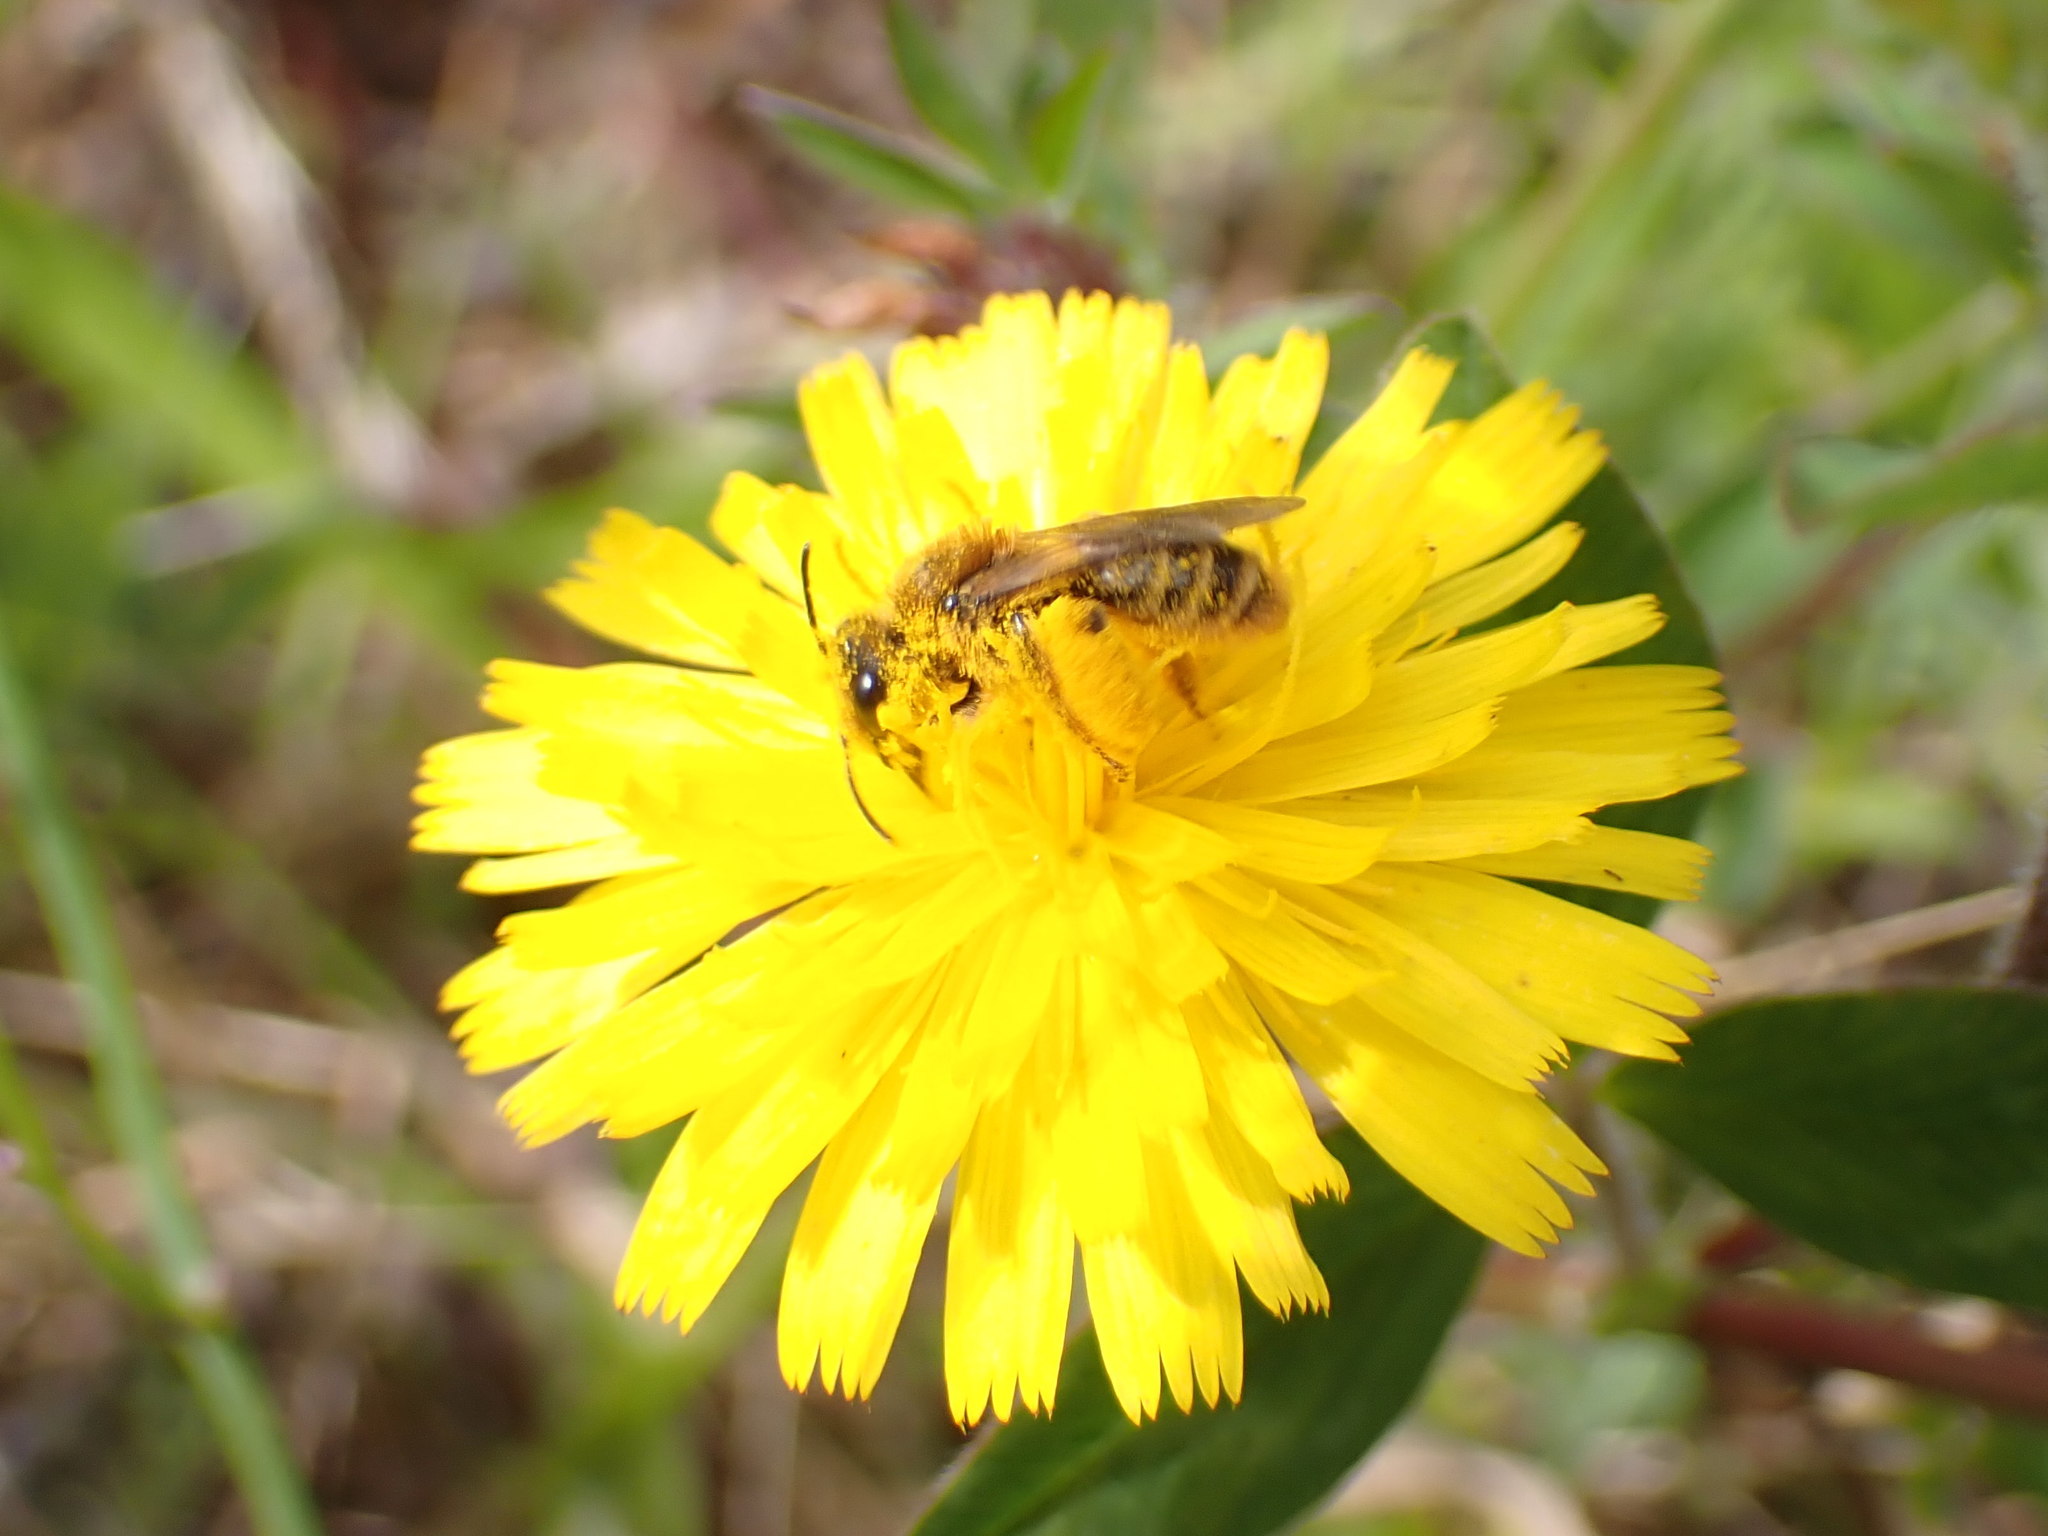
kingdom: Animalia
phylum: Arthropoda
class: Insecta
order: Hymenoptera
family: Colletidae
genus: Leioproctus
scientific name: Leioproctus fulvescens
